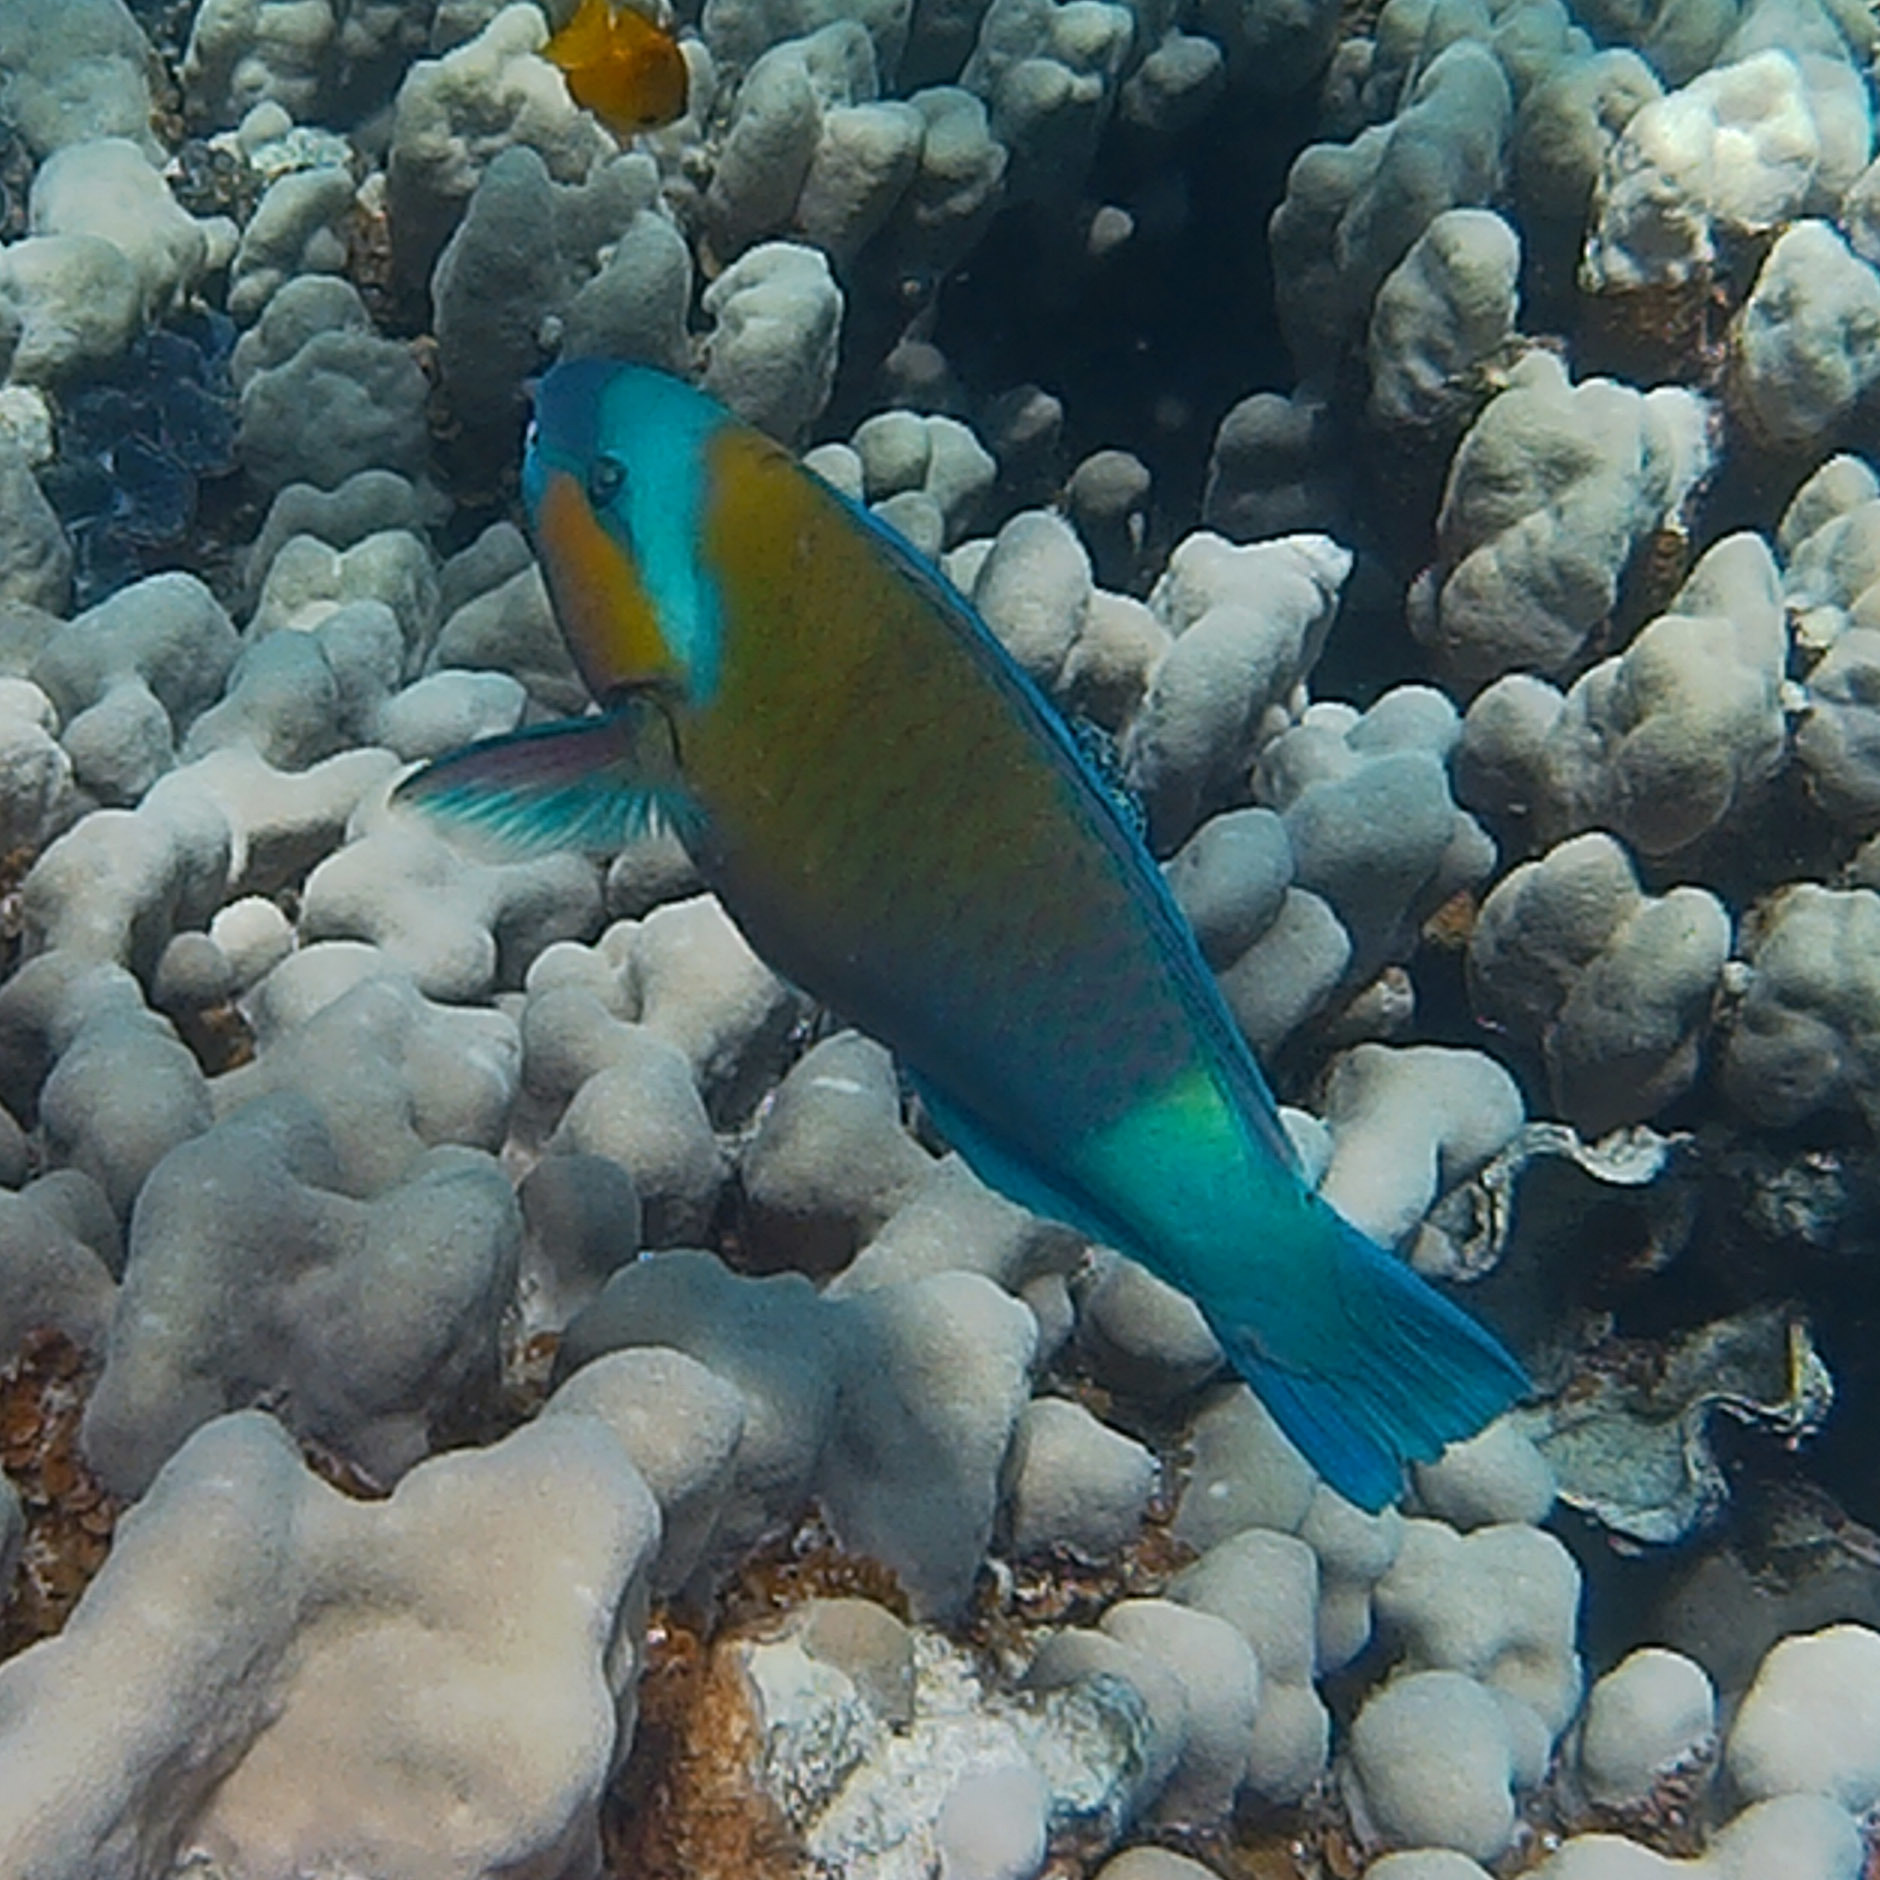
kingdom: Animalia
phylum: Chordata
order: Perciformes
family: Scaridae
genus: Chlorurus
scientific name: Chlorurus sordidus
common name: Bullethead parrotfish
